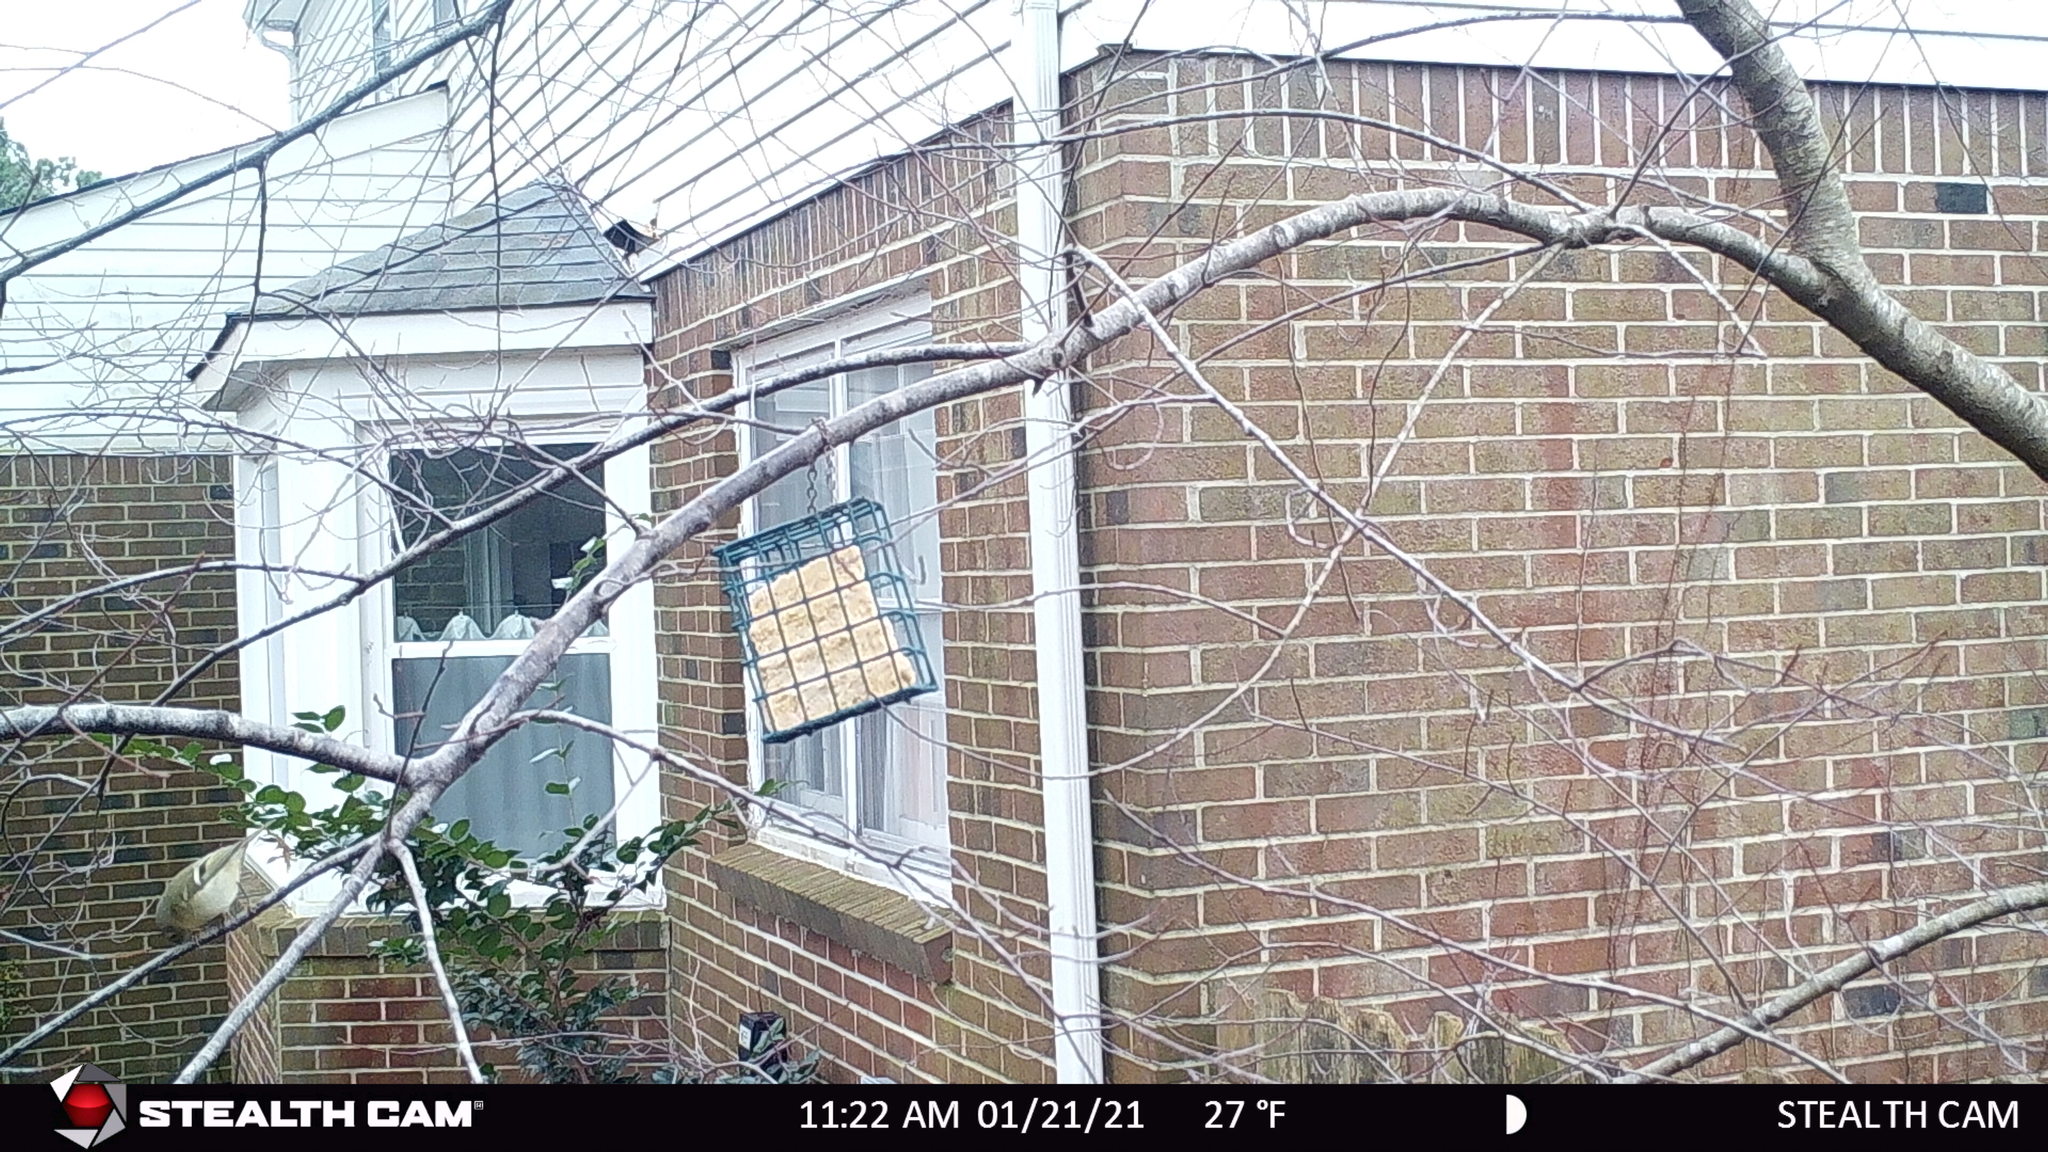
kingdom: Animalia
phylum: Chordata
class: Aves
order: Passeriformes
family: Regulidae
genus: Regulus
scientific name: Regulus calendula
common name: Ruby-crowned kinglet
